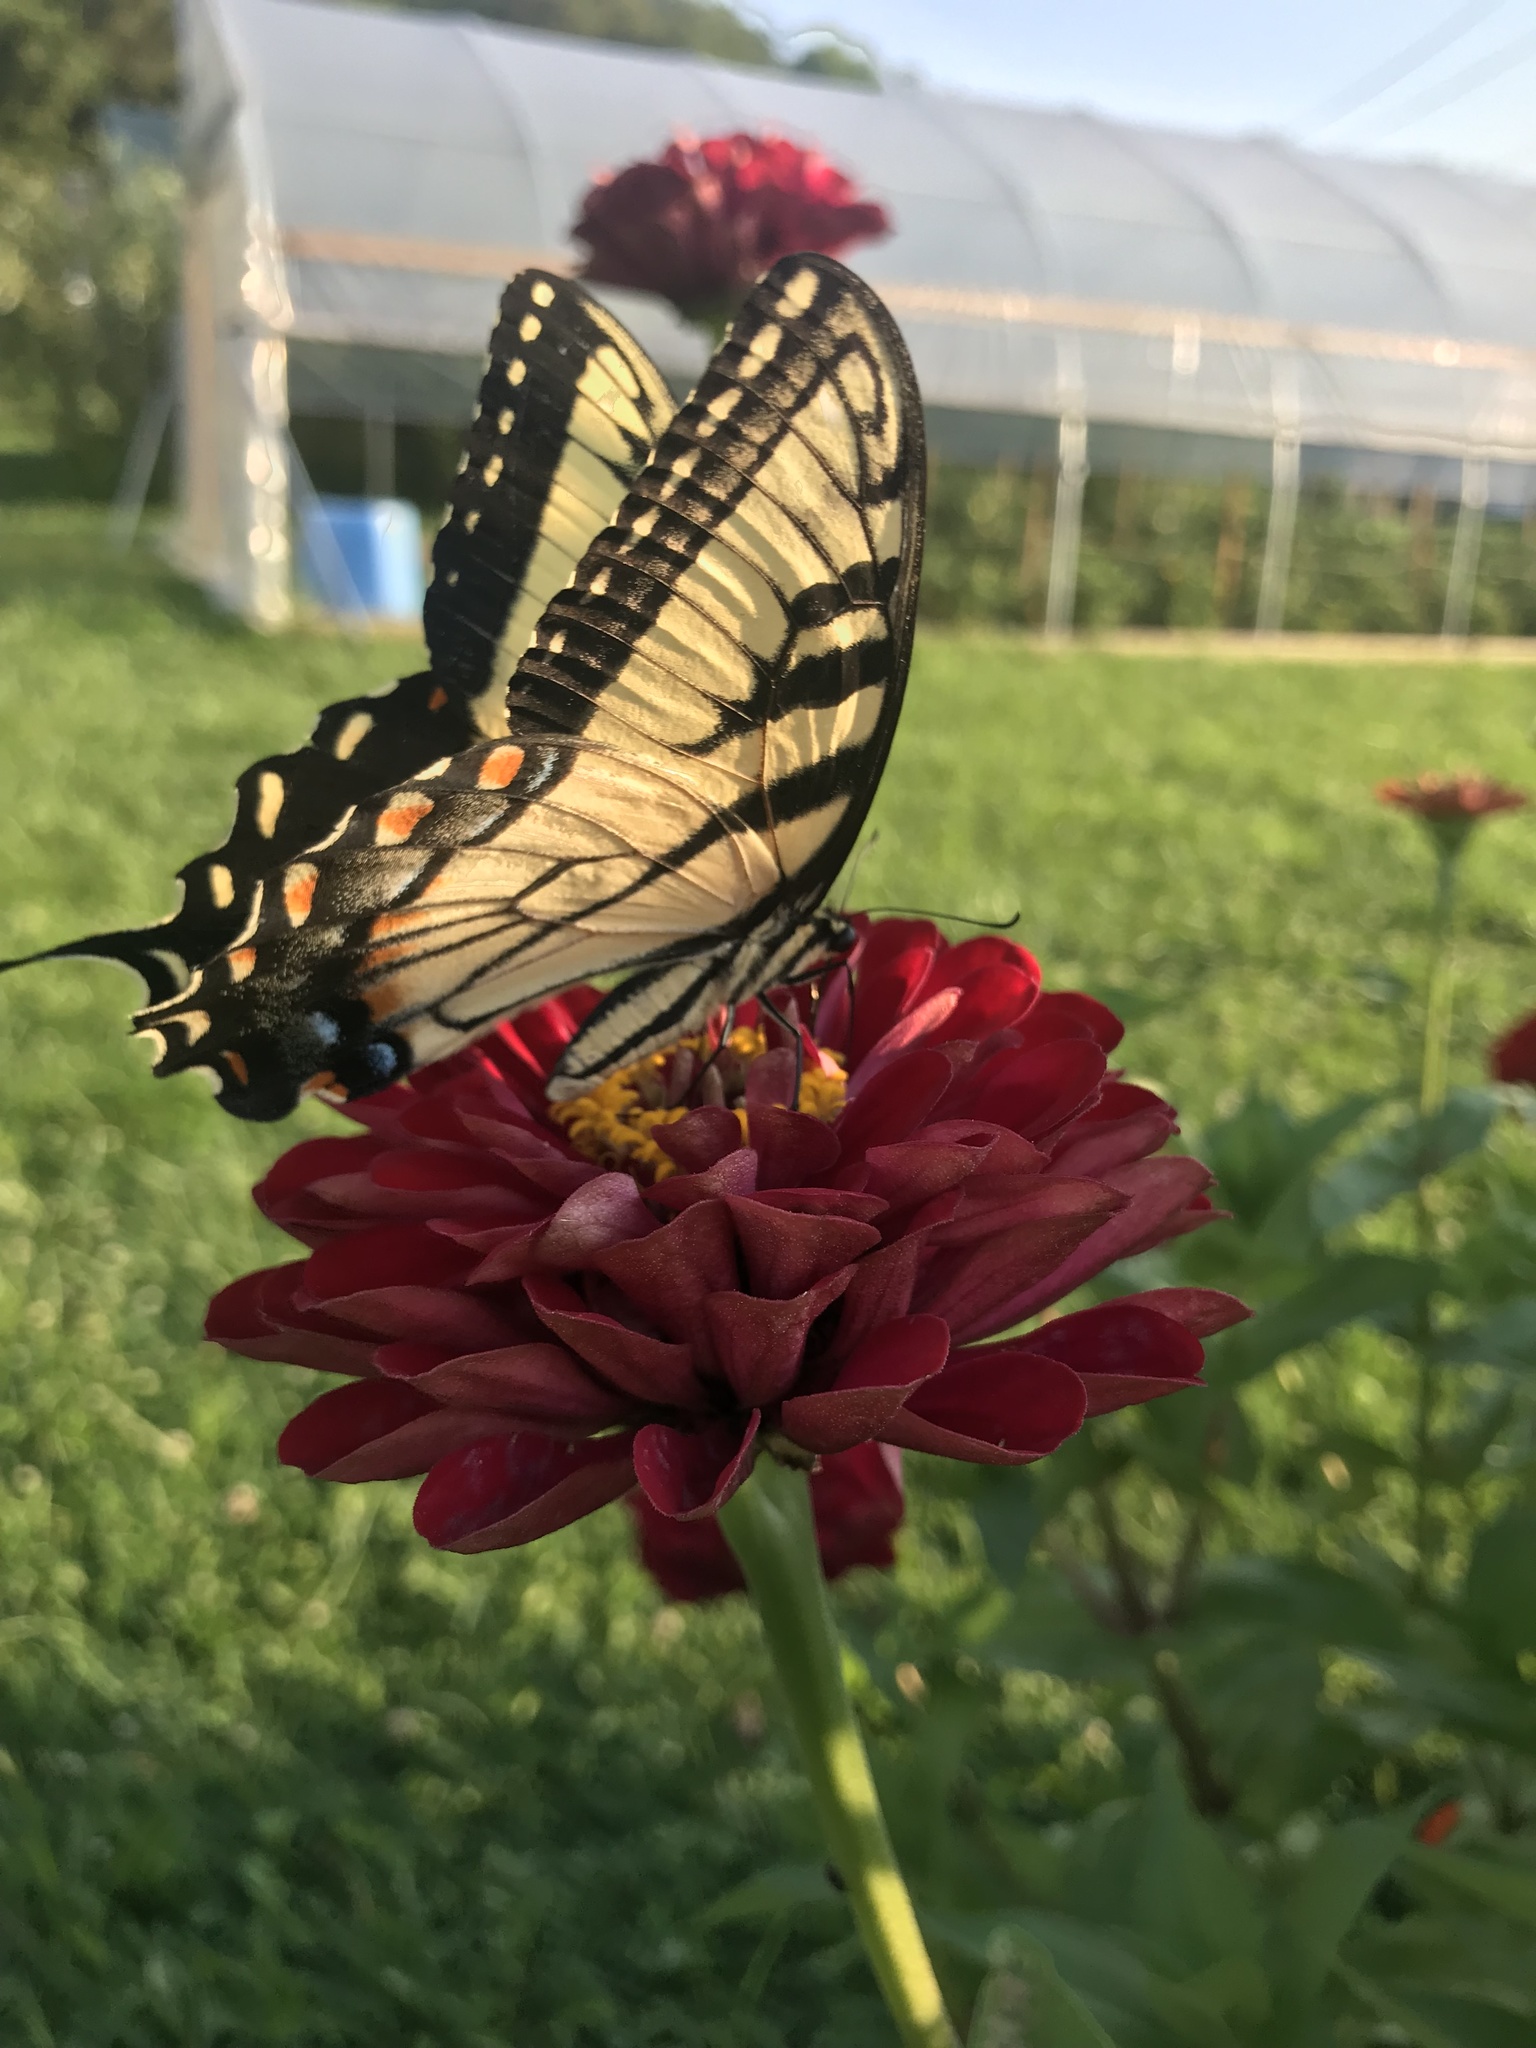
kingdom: Animalia
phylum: Arthropoda
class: Insecta
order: Lepidoptera
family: Papilionidae
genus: Papilio
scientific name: Papilio glaucus
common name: Tiger swallowtail
